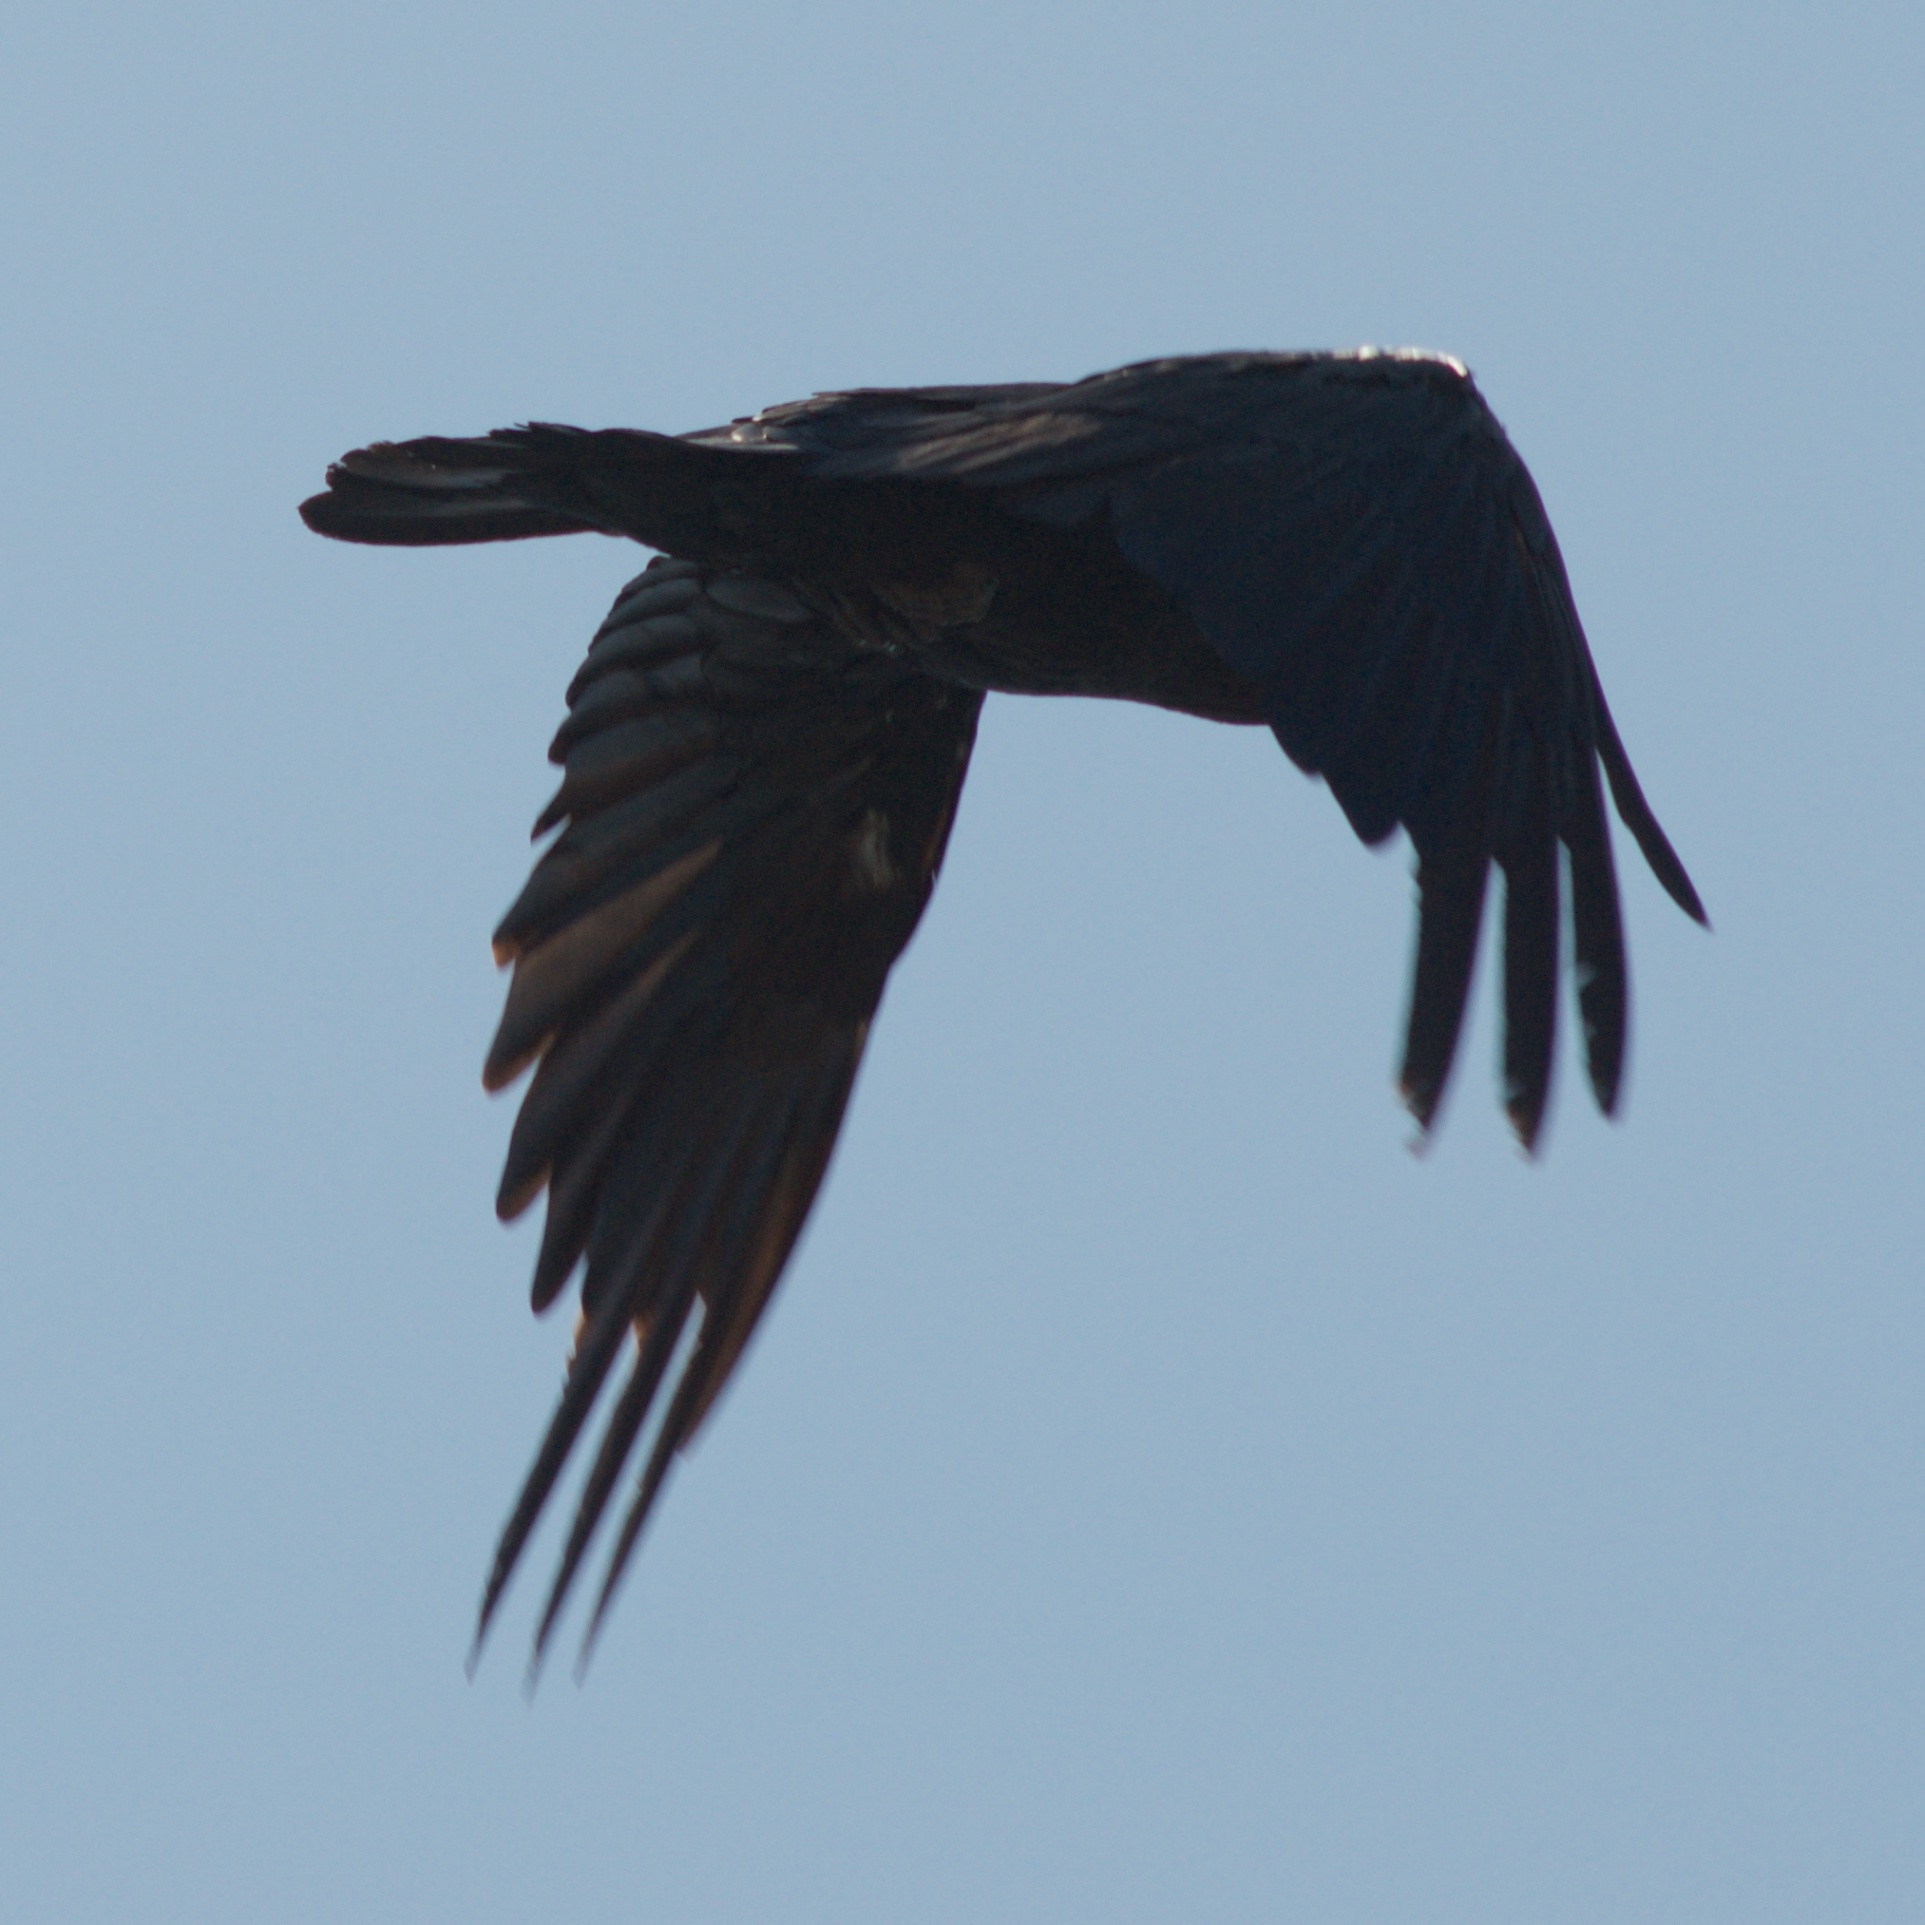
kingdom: Animalia
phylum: Chordata
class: Aves
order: Passeriformes
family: Corvidae
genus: Corvus
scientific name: Corvus corax
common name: Common raven
